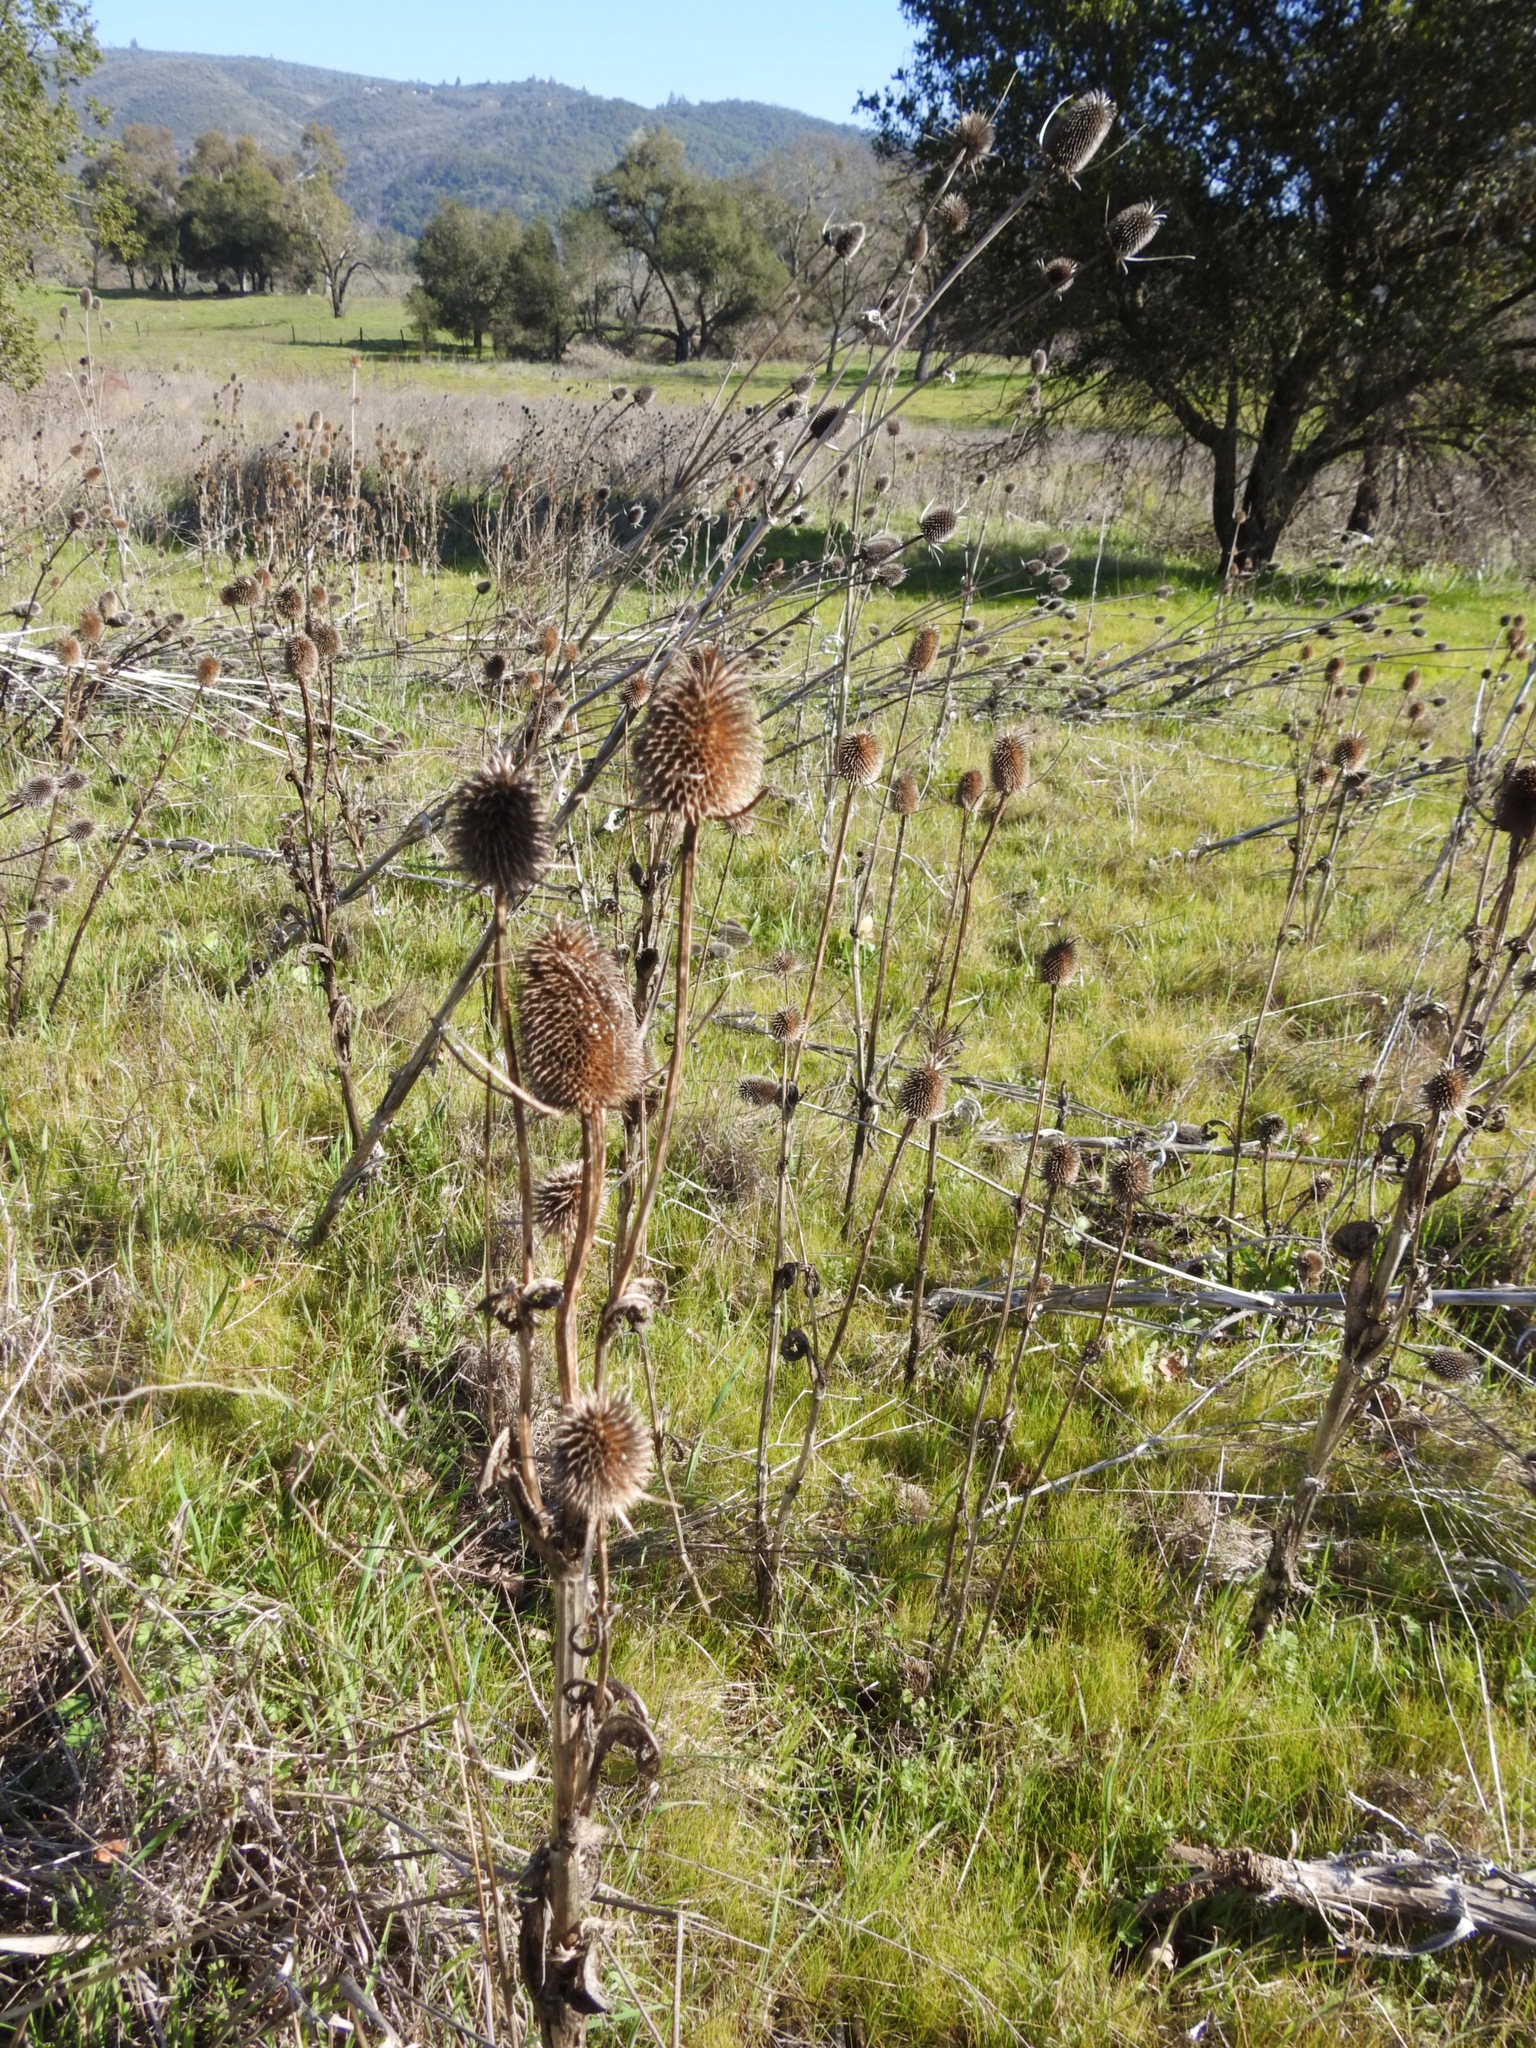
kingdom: Plantae
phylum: Tracheophyta
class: Magnoliopsida
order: Dipsacales
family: Caprifoliaceae
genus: Dipsacus
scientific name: Dipsacus sativus
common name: Fuller's teasel
